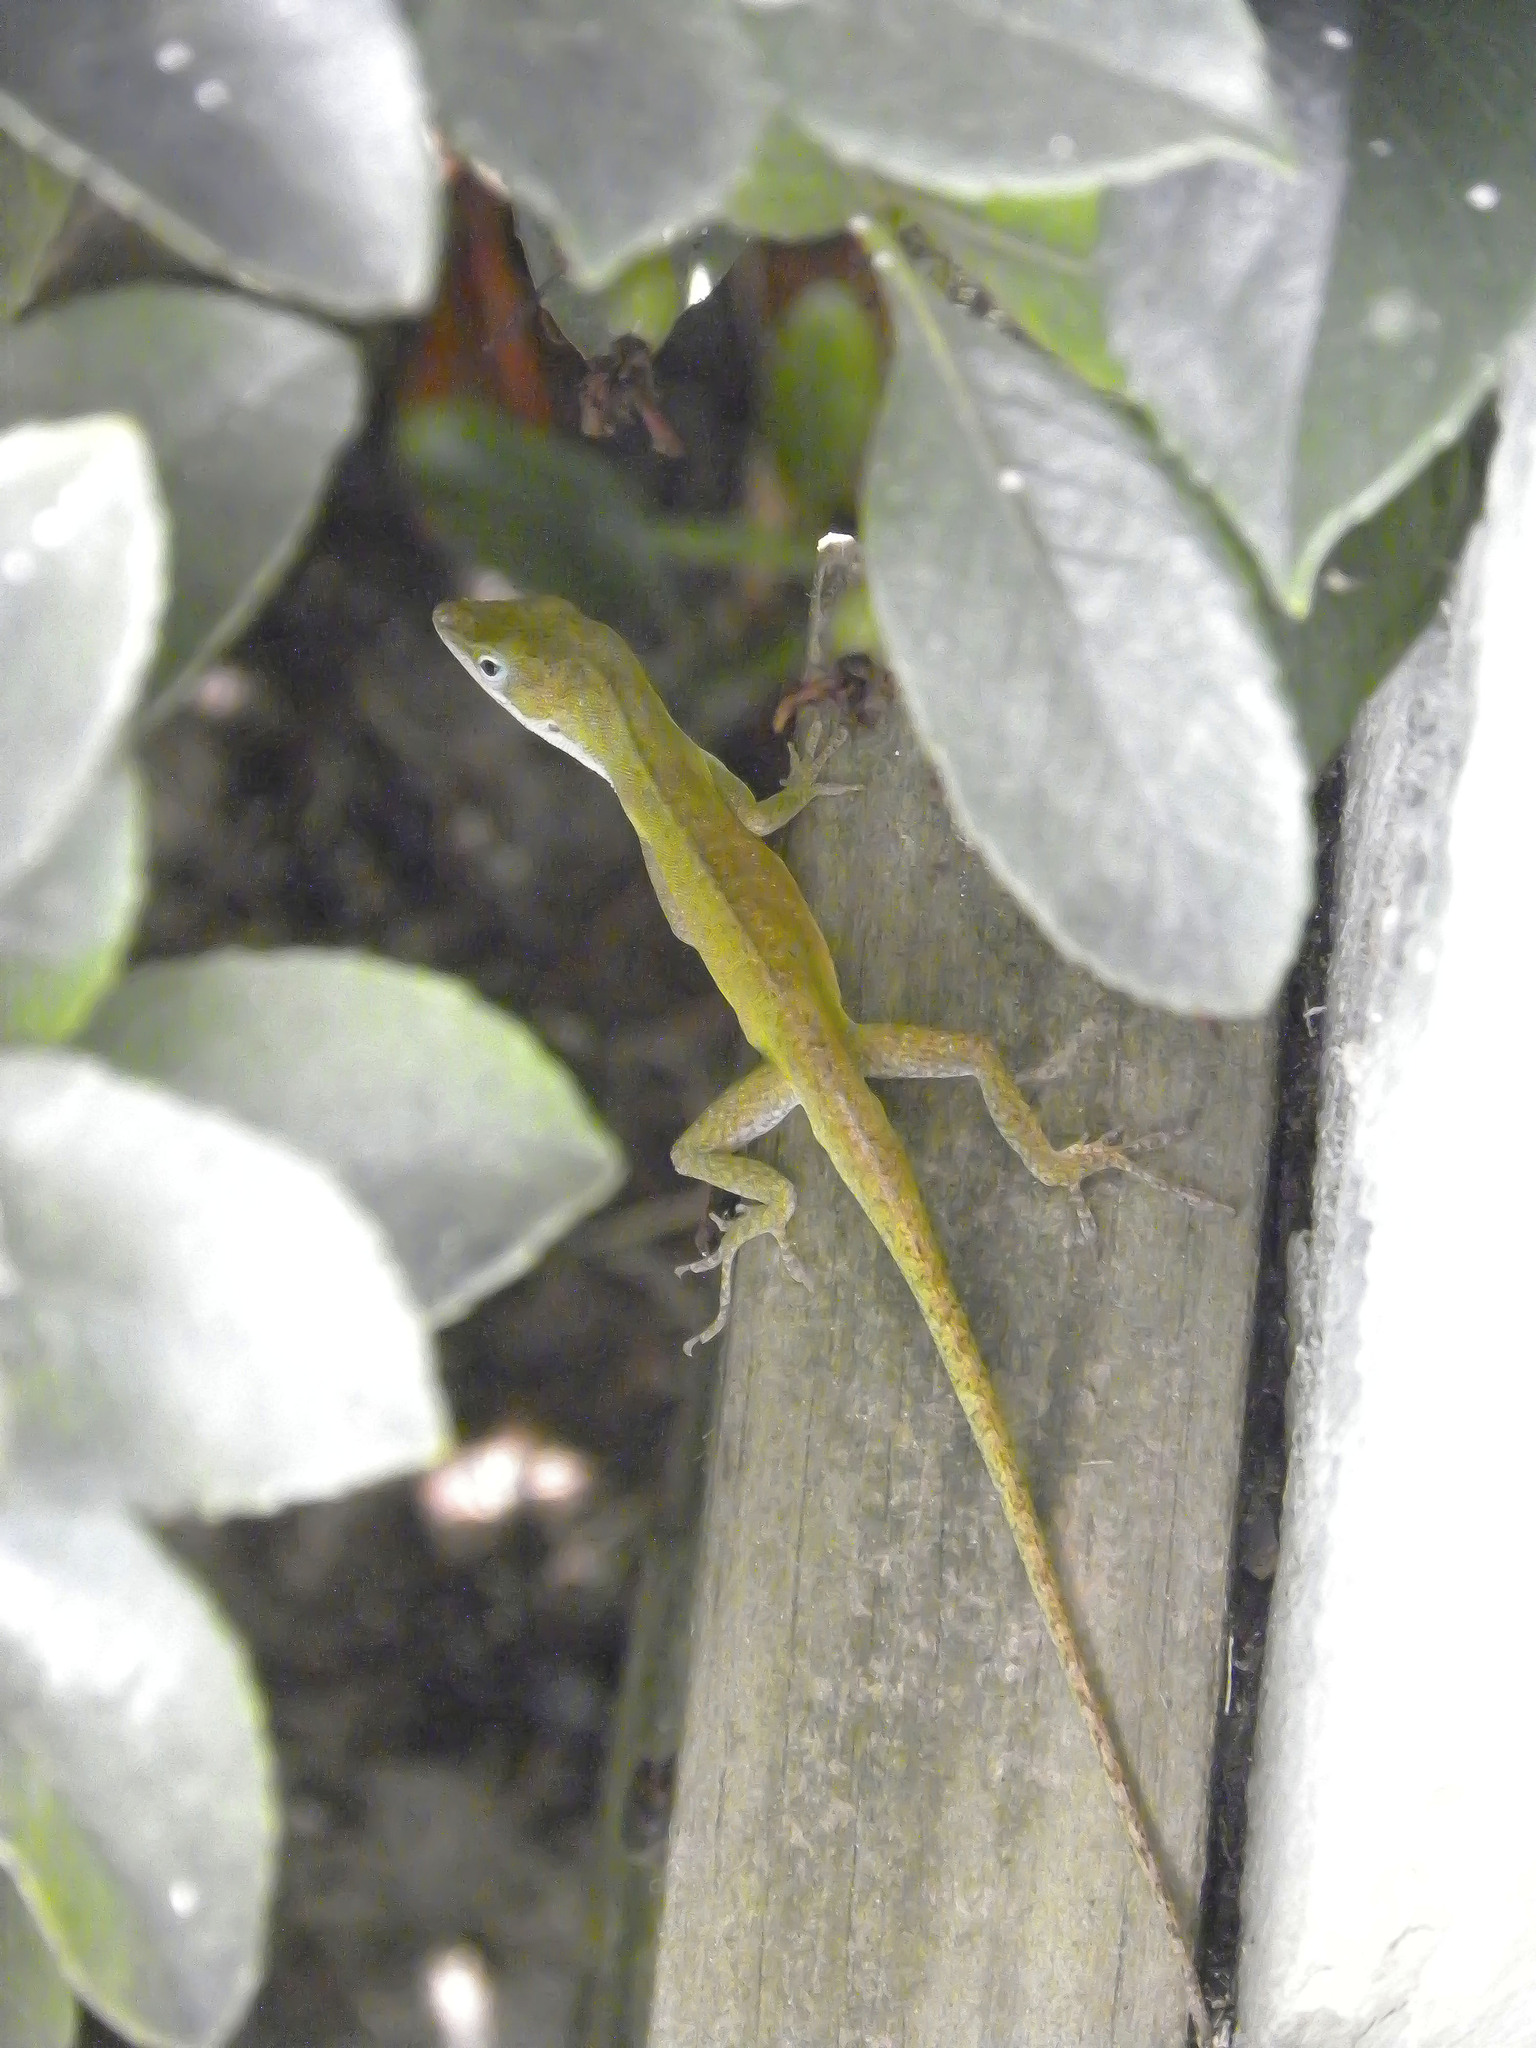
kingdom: Animalia
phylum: Chordata
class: Squamata
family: Dactyloidae
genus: Anolis
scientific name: Anolis carolinensis
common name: Green anole
